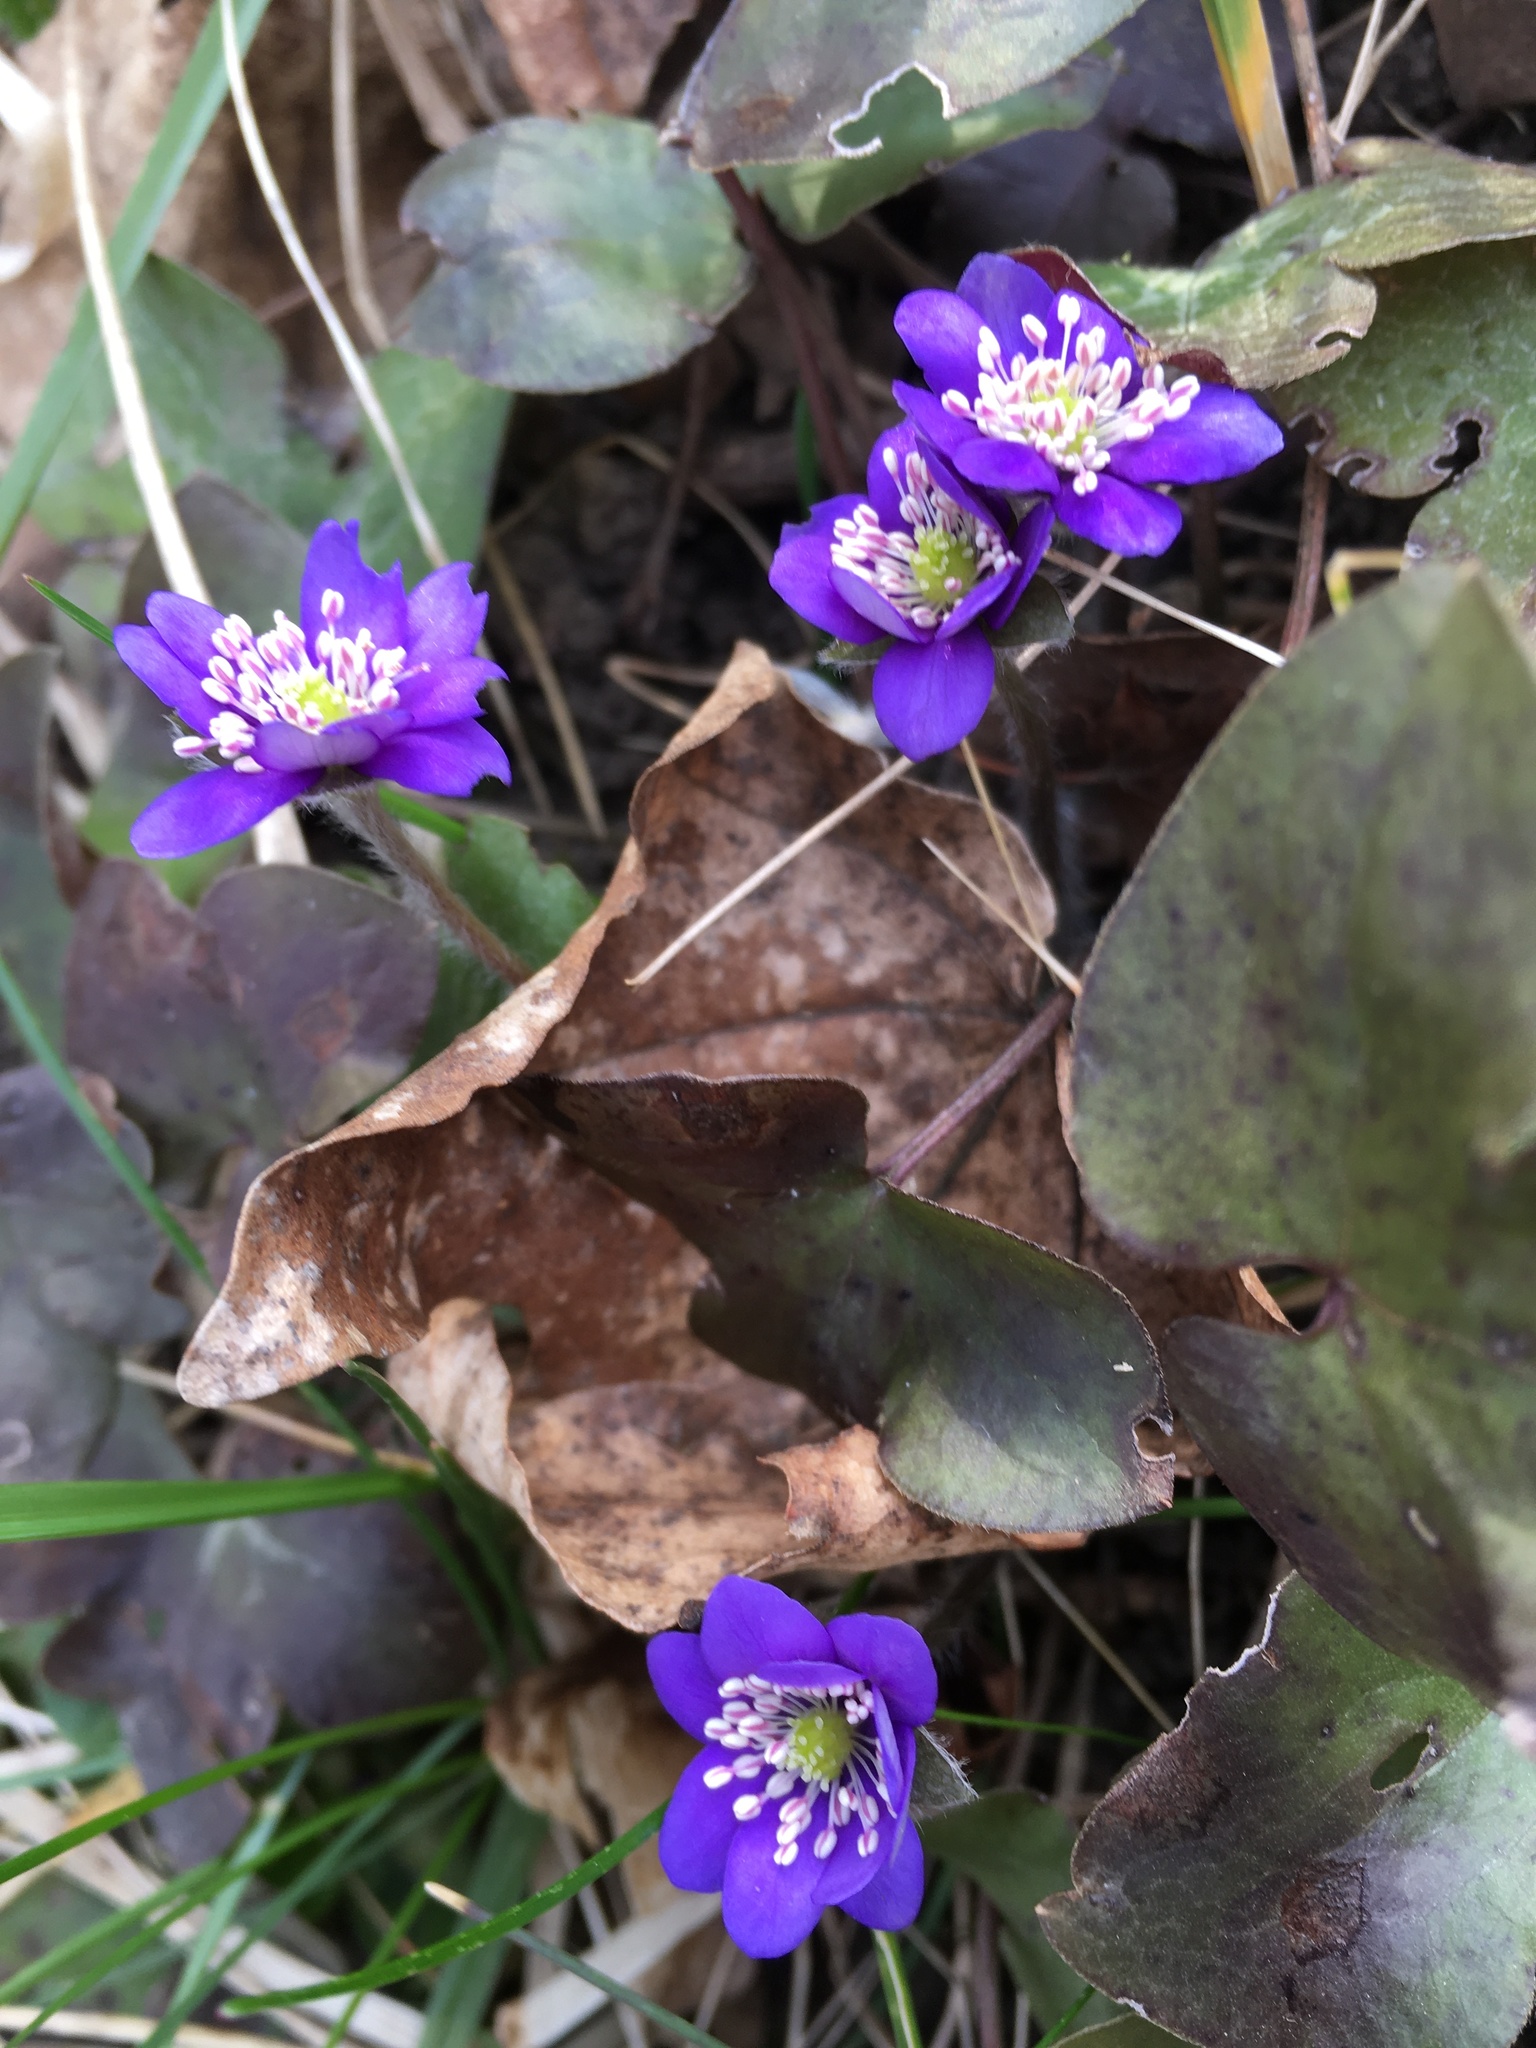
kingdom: Plantae
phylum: Tracheophyta
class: Magnoliopsida
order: Ranunculales
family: Ranunculaceae
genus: Hepatica
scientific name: Hepatica nobilis
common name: Liverleaf
